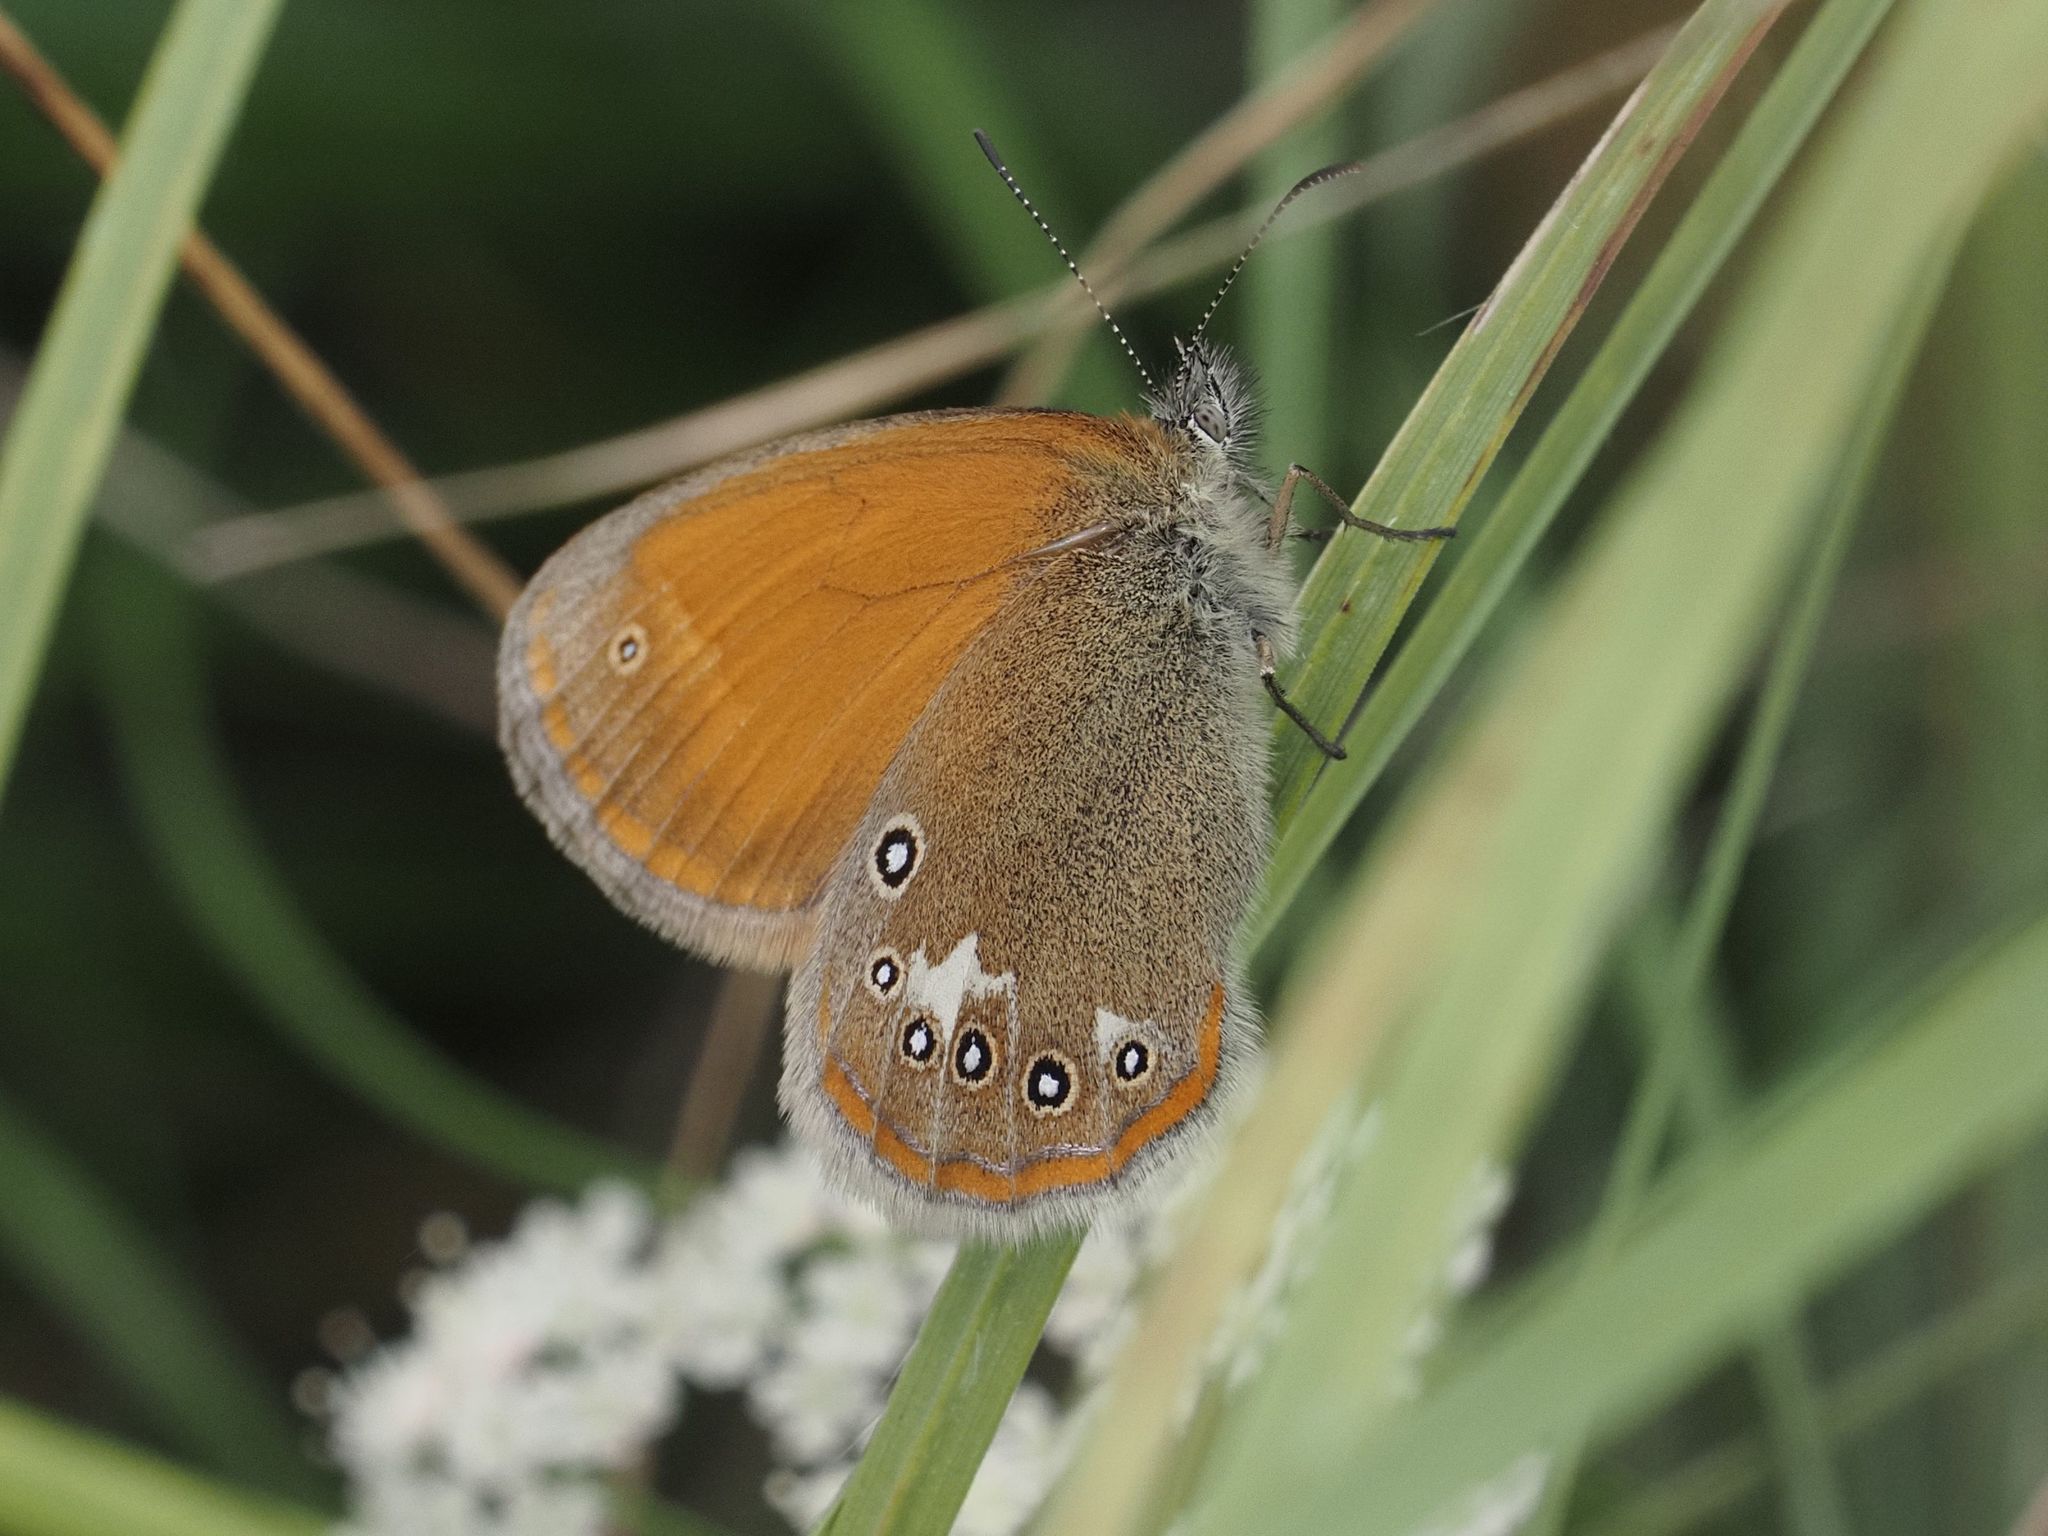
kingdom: Animalia
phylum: Arthropoda
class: Insecta
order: Lepidoptera
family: Nymphalidae
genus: Coenonympha
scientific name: Coenonympha iphis
